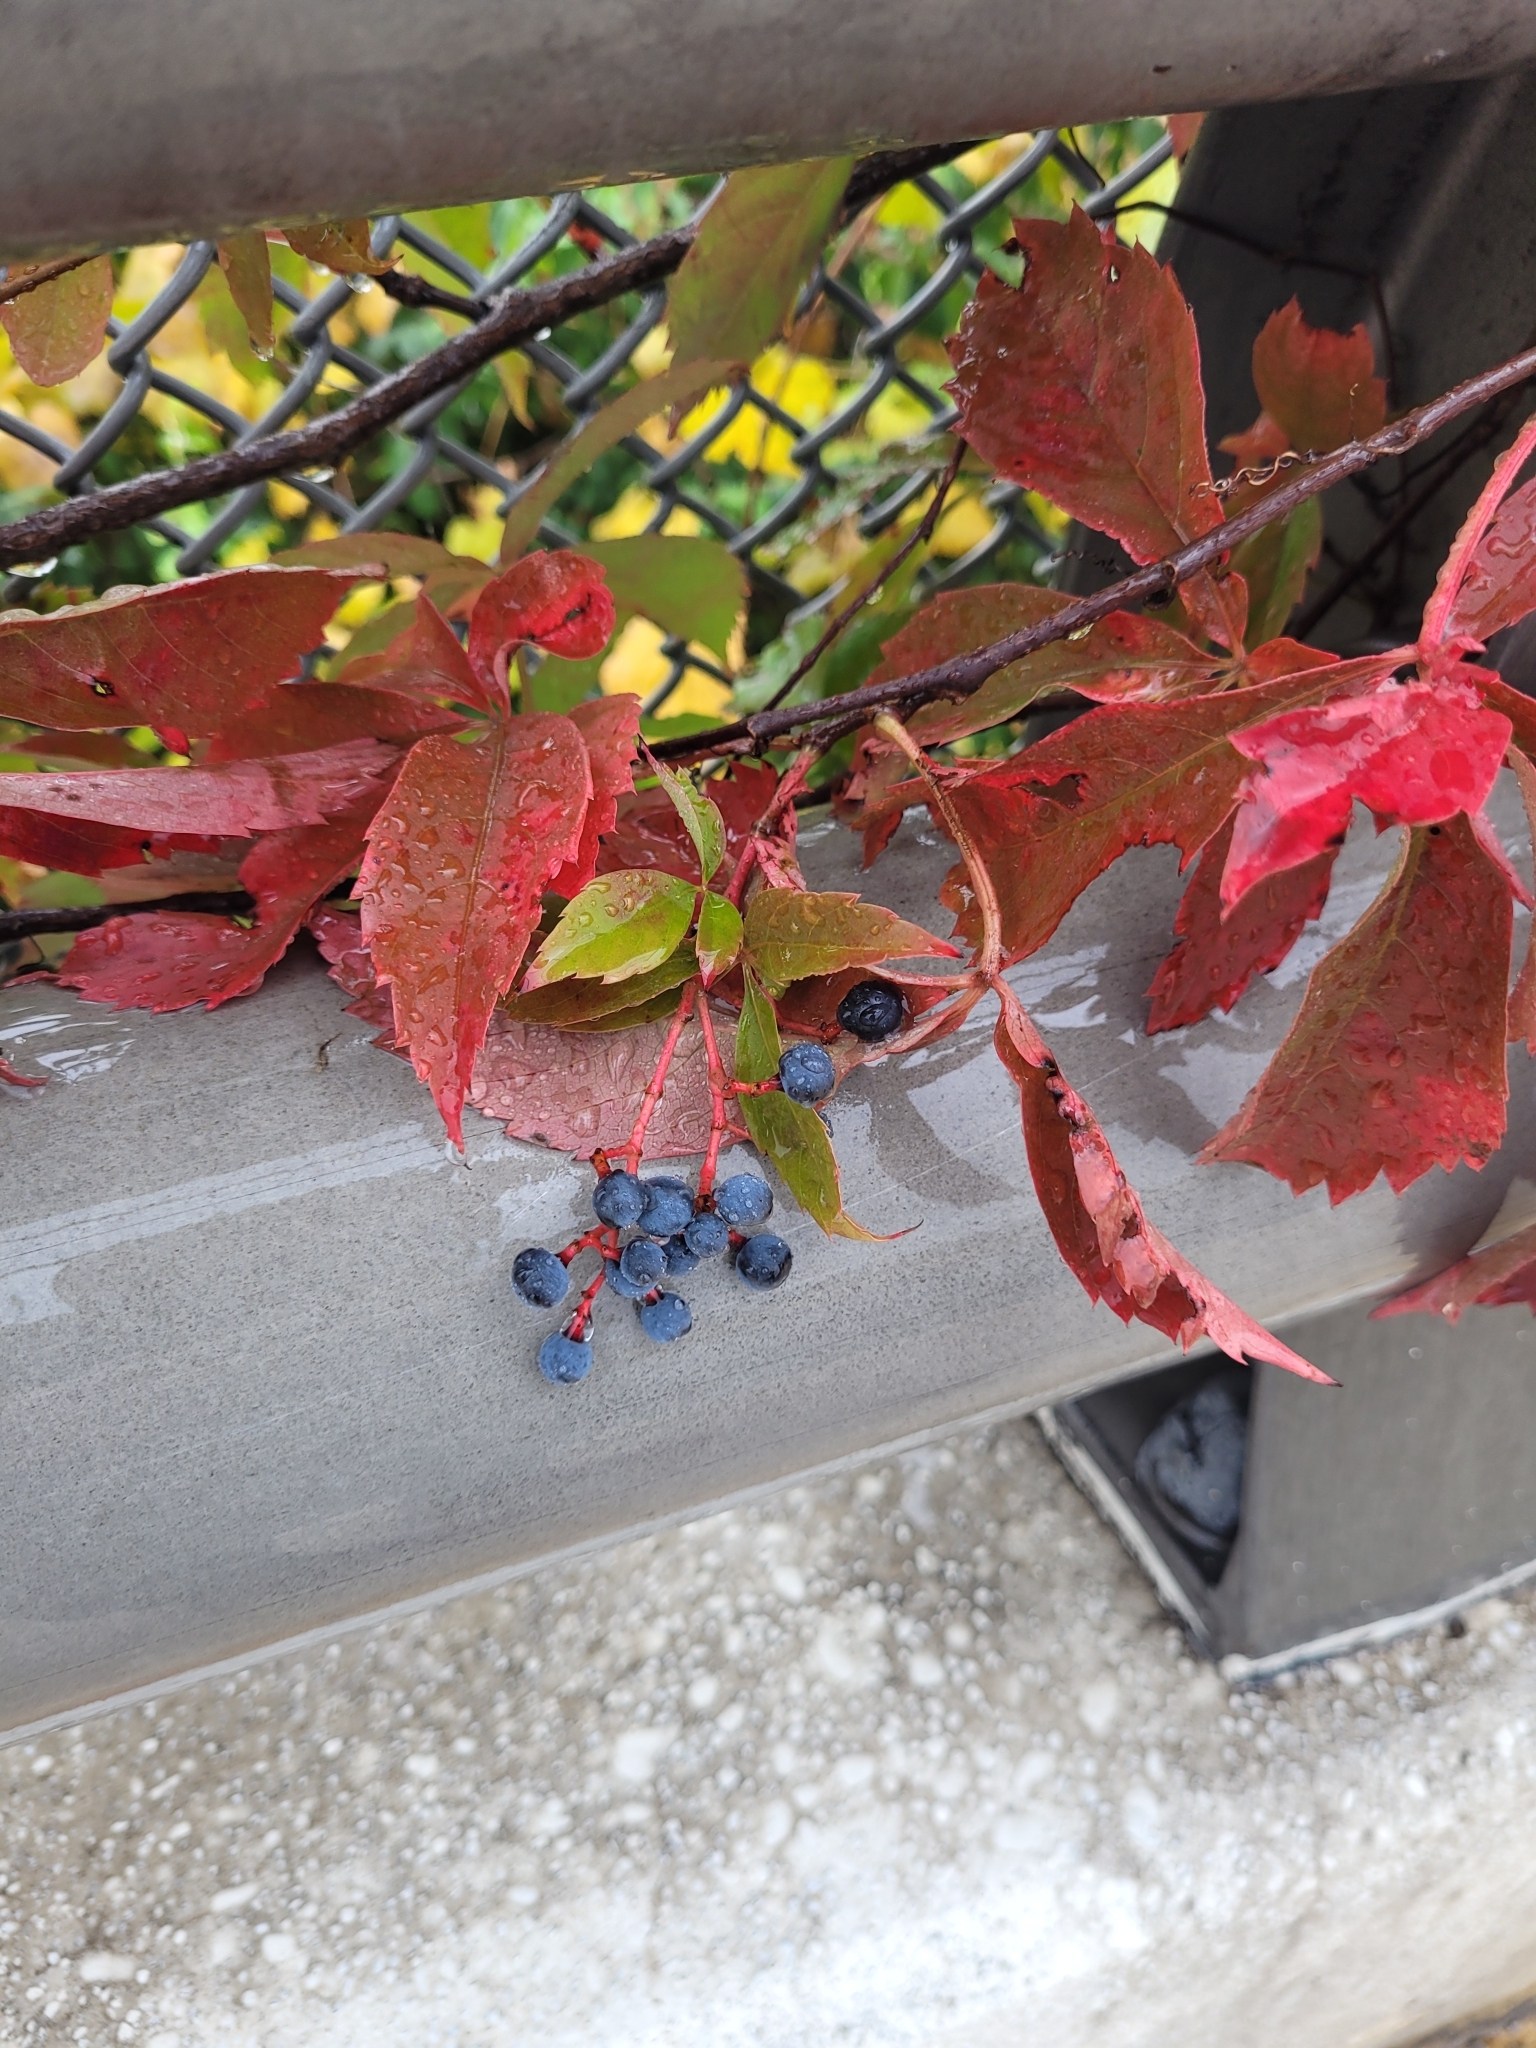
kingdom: Plantae
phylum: Tracheophyta
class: Magnoliopsida
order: Vitales
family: Vitaceae
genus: Parthenocissus
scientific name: Parthenocissus quinquefolia
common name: Virginia-creeper
